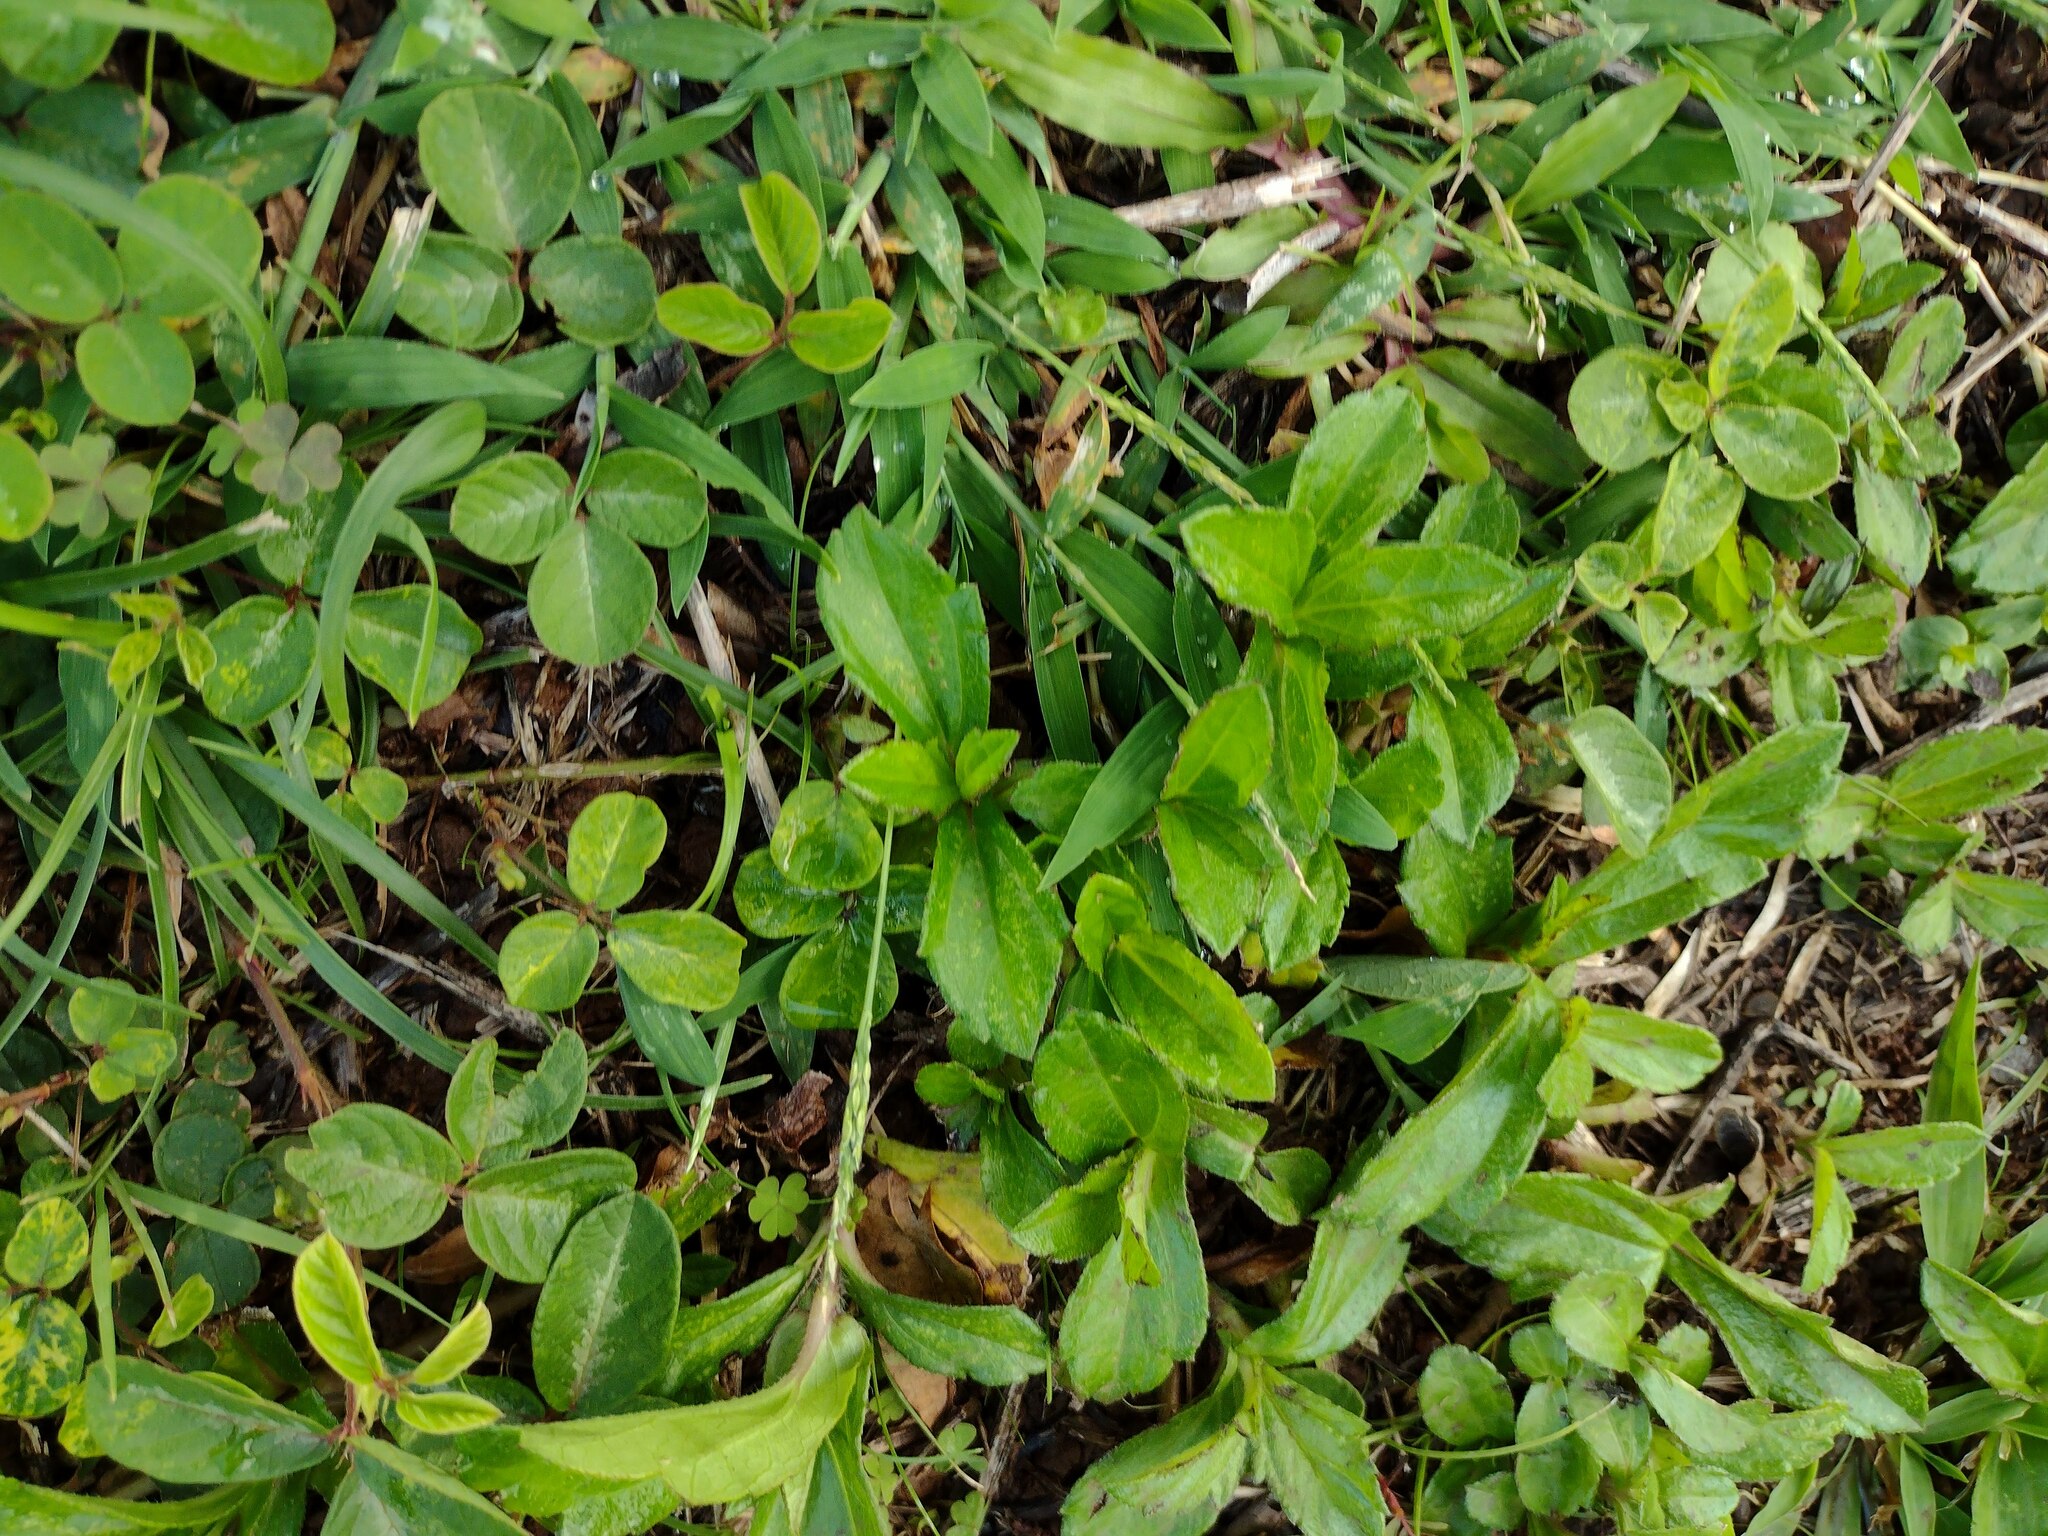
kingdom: Plantae
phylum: Tracheophyta
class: Liliopsida
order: Poales
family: Poaceae
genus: Digitaria
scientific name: Digitaria ciliaris
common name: Tropical finger-grass
